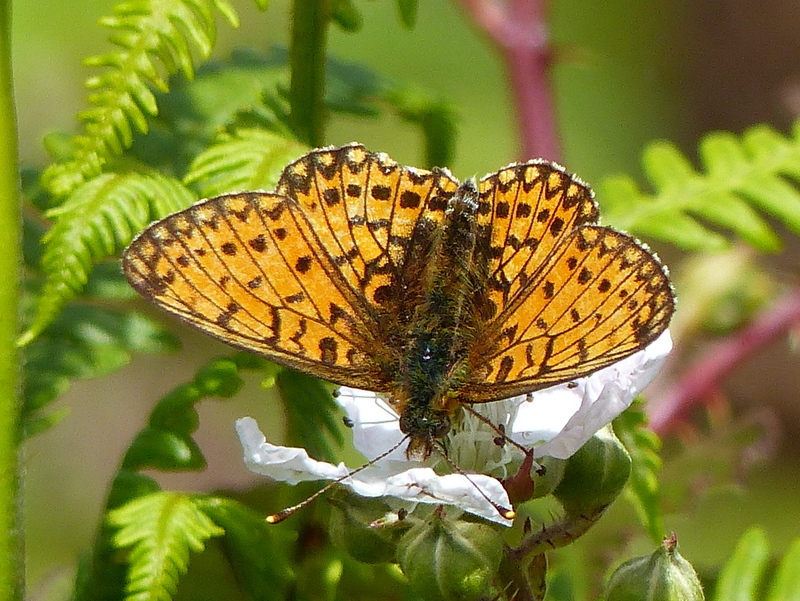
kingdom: Animalia
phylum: Arthropoda
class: Insecta
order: Lepidoptera
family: Nymphalidae
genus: Boloria
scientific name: Boloria selene
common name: Small pearl-bordered fritillary
